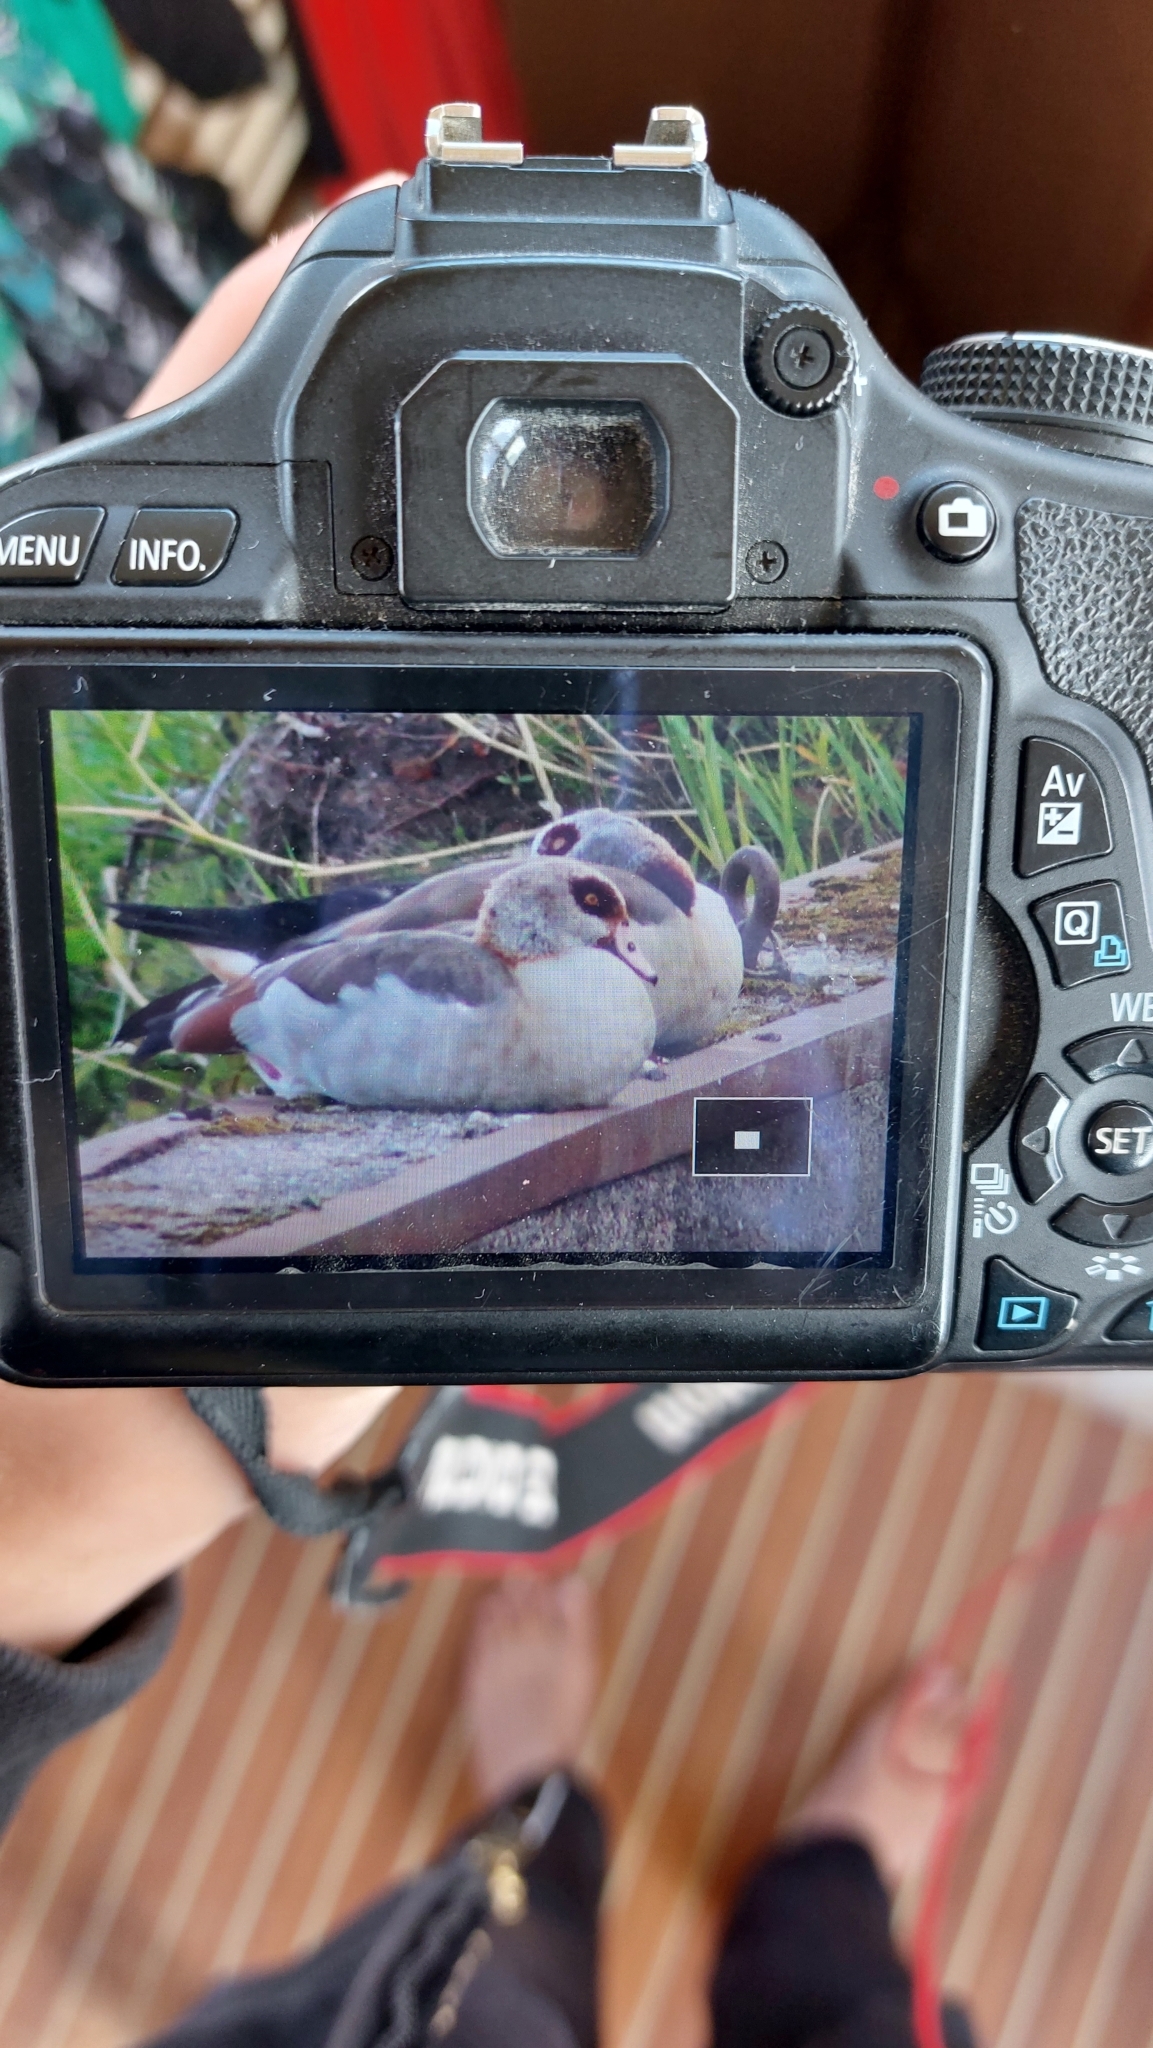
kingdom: Animalia
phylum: Chordata
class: Aves
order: Anseriformes
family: Anatidae
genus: Alopochen
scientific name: Alopochen aegyptiaca
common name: Egyptian goose
